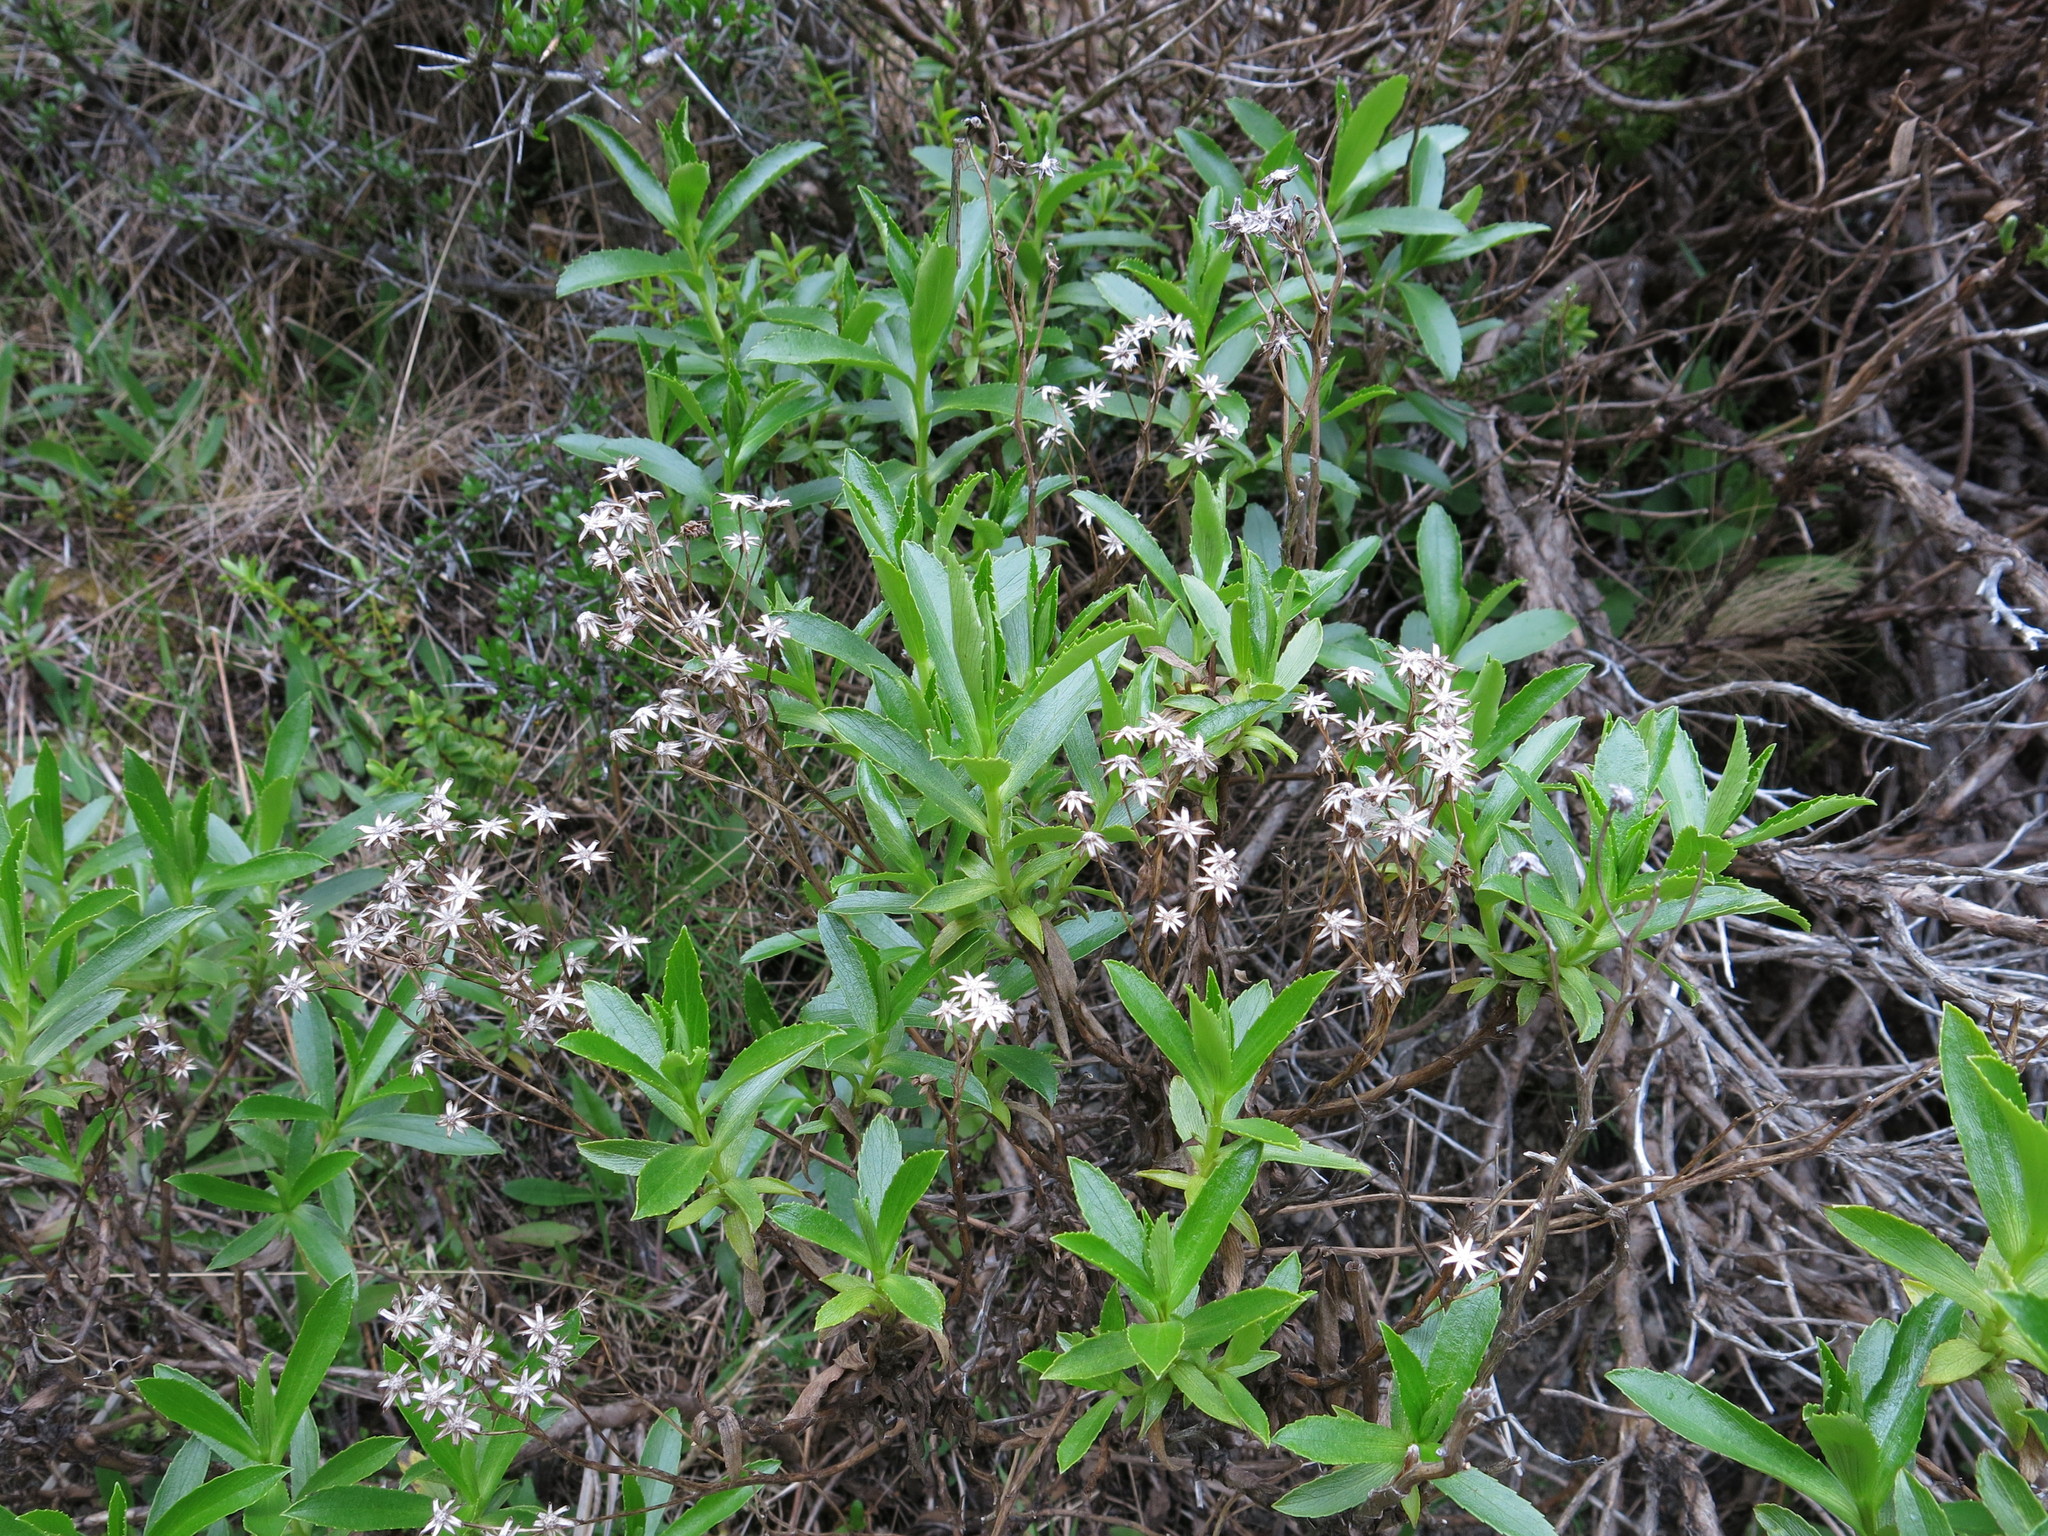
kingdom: Plantae
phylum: Tracheophyta
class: Magnoliopsida
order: Asterales
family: Asteraceae
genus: Traversia
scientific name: Traversia baccharoides
